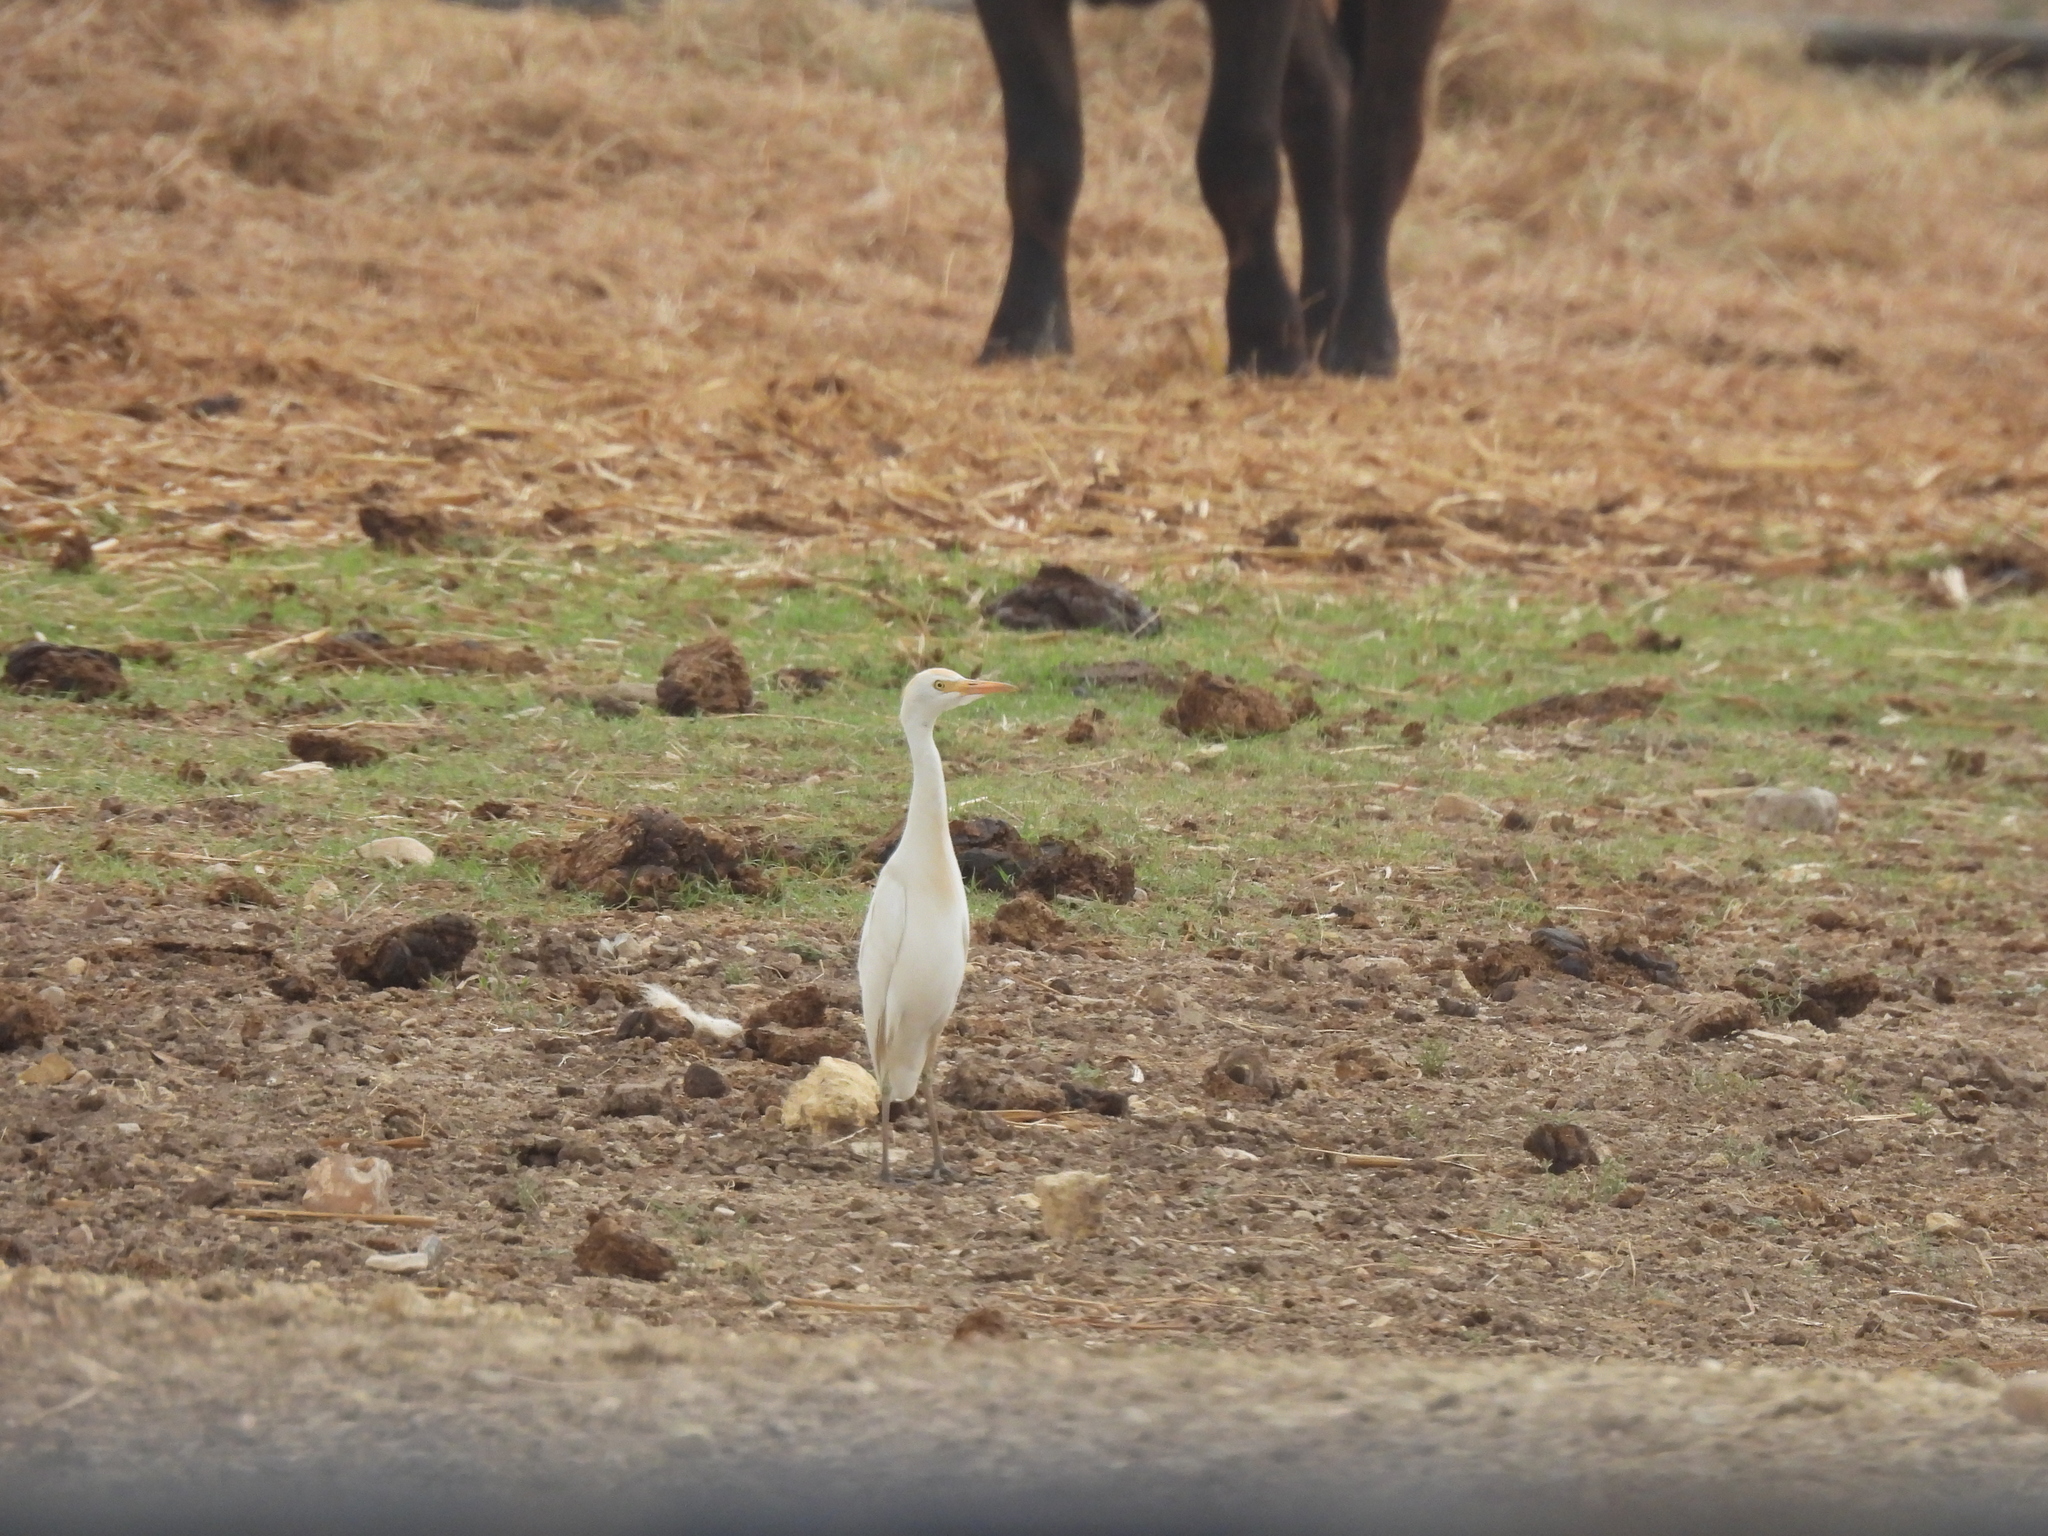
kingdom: Animalia
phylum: Chordata
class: Aves
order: Pelecaniformes
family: Ardeidae
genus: Bubulcus
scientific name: Bubulcus ibis
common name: Cattle egret
